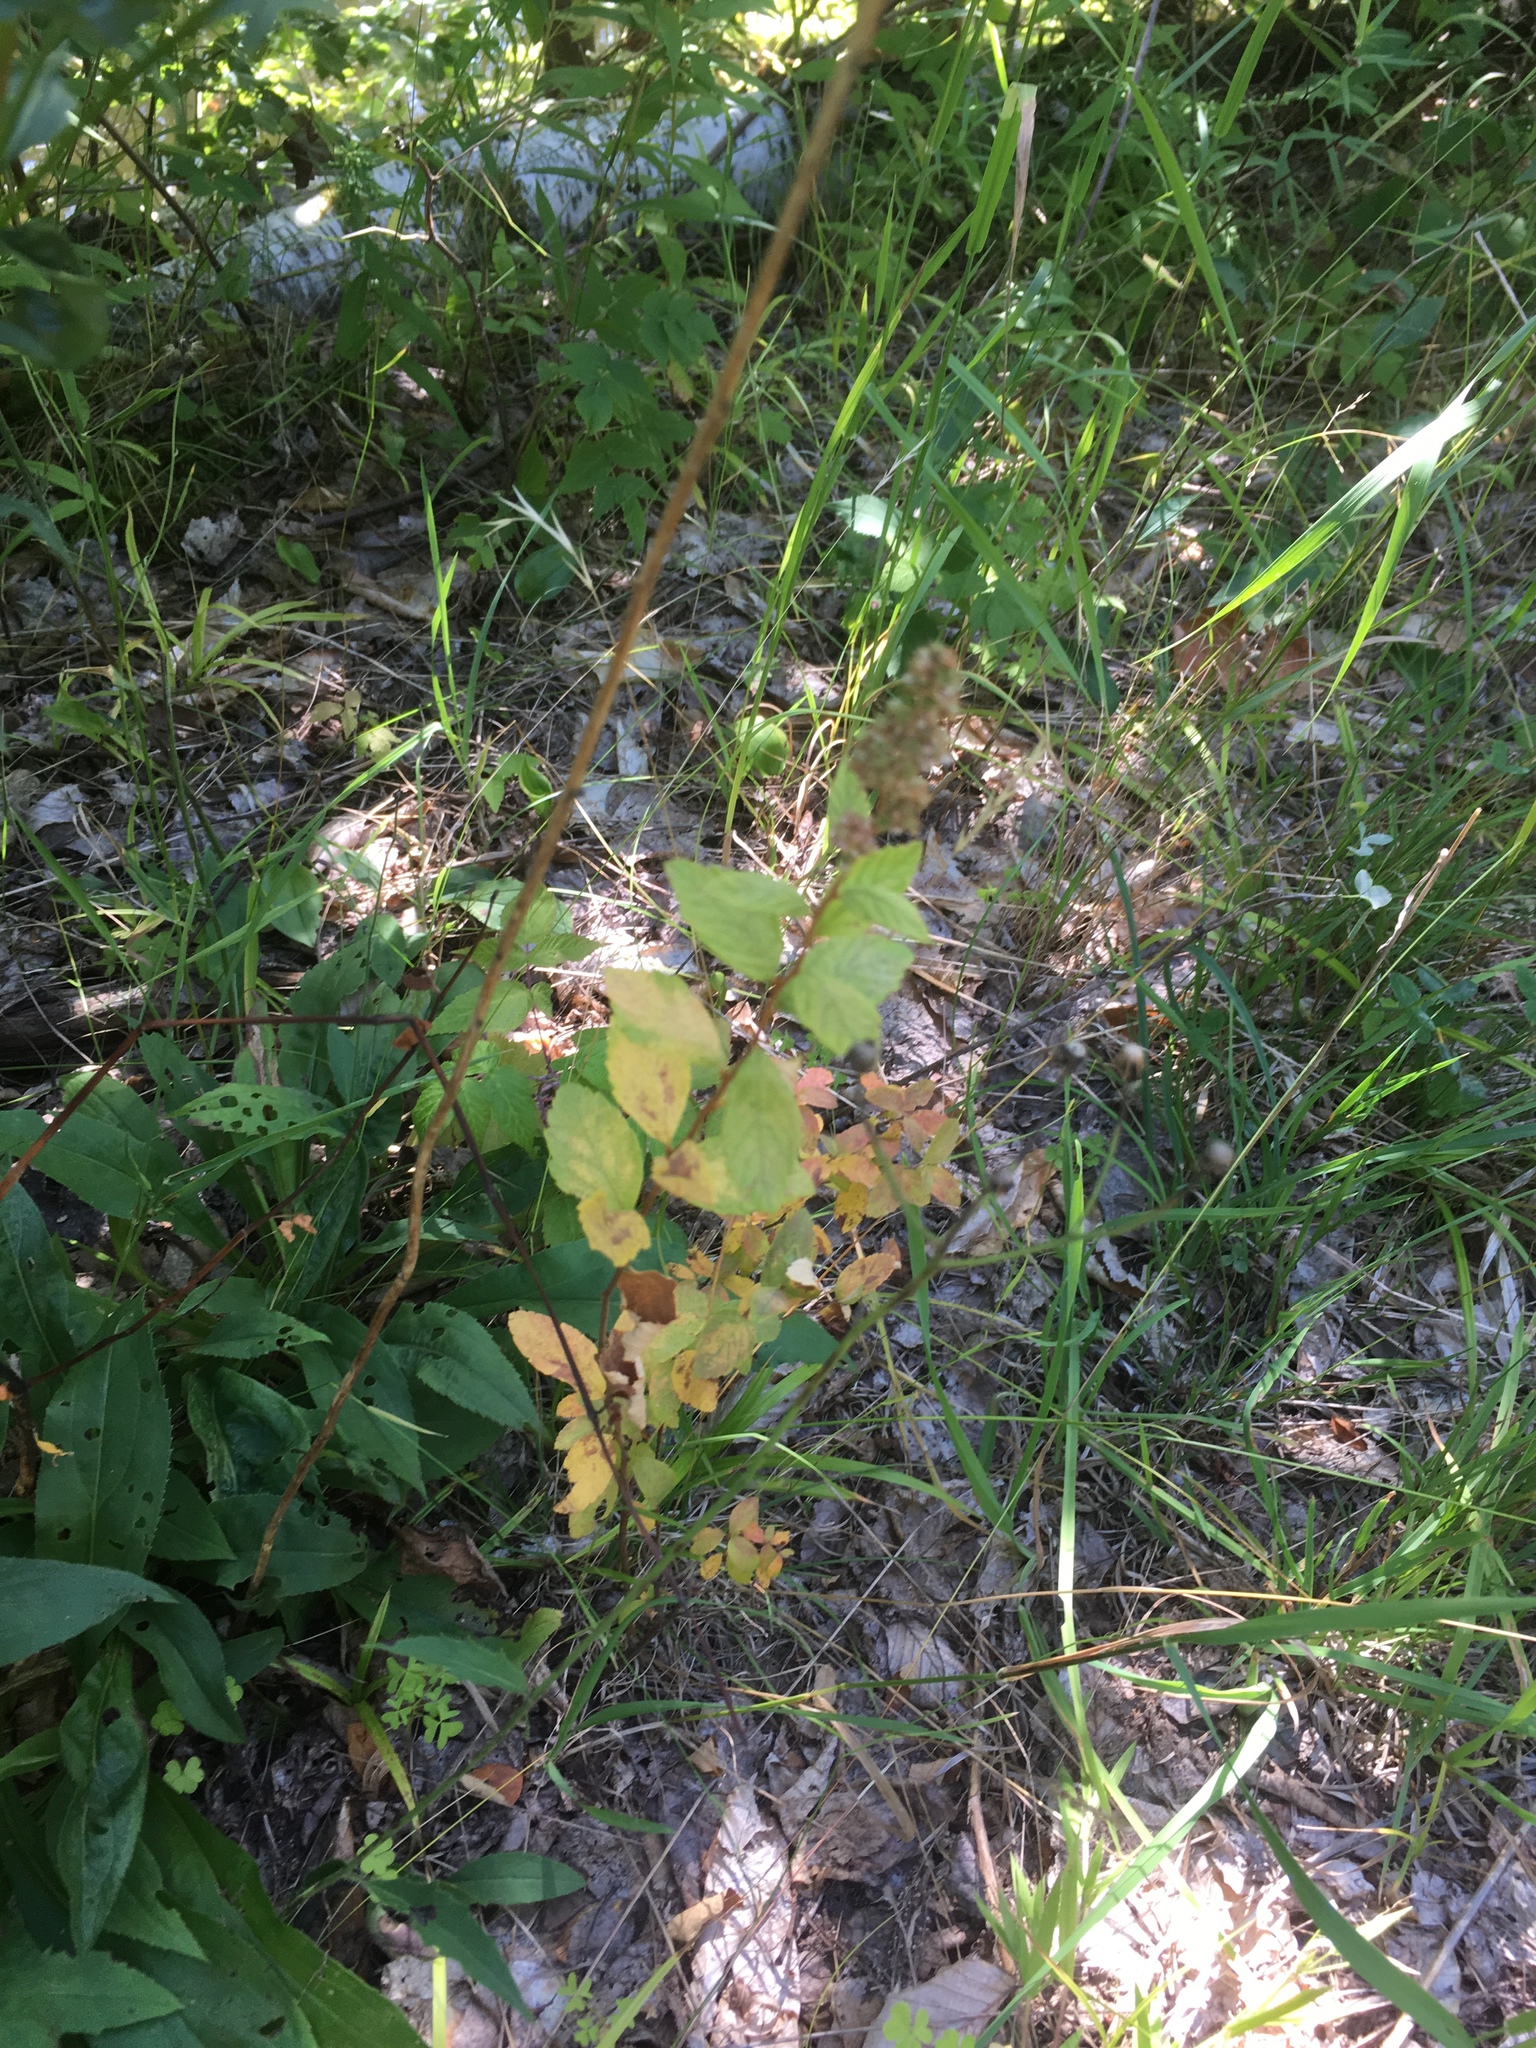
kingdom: Plantae
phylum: Tracheophyta
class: Magnoliopsida
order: Rosales
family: Rosaceae
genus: Spiraea
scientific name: Spiraea alba
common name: Pale bridewort
